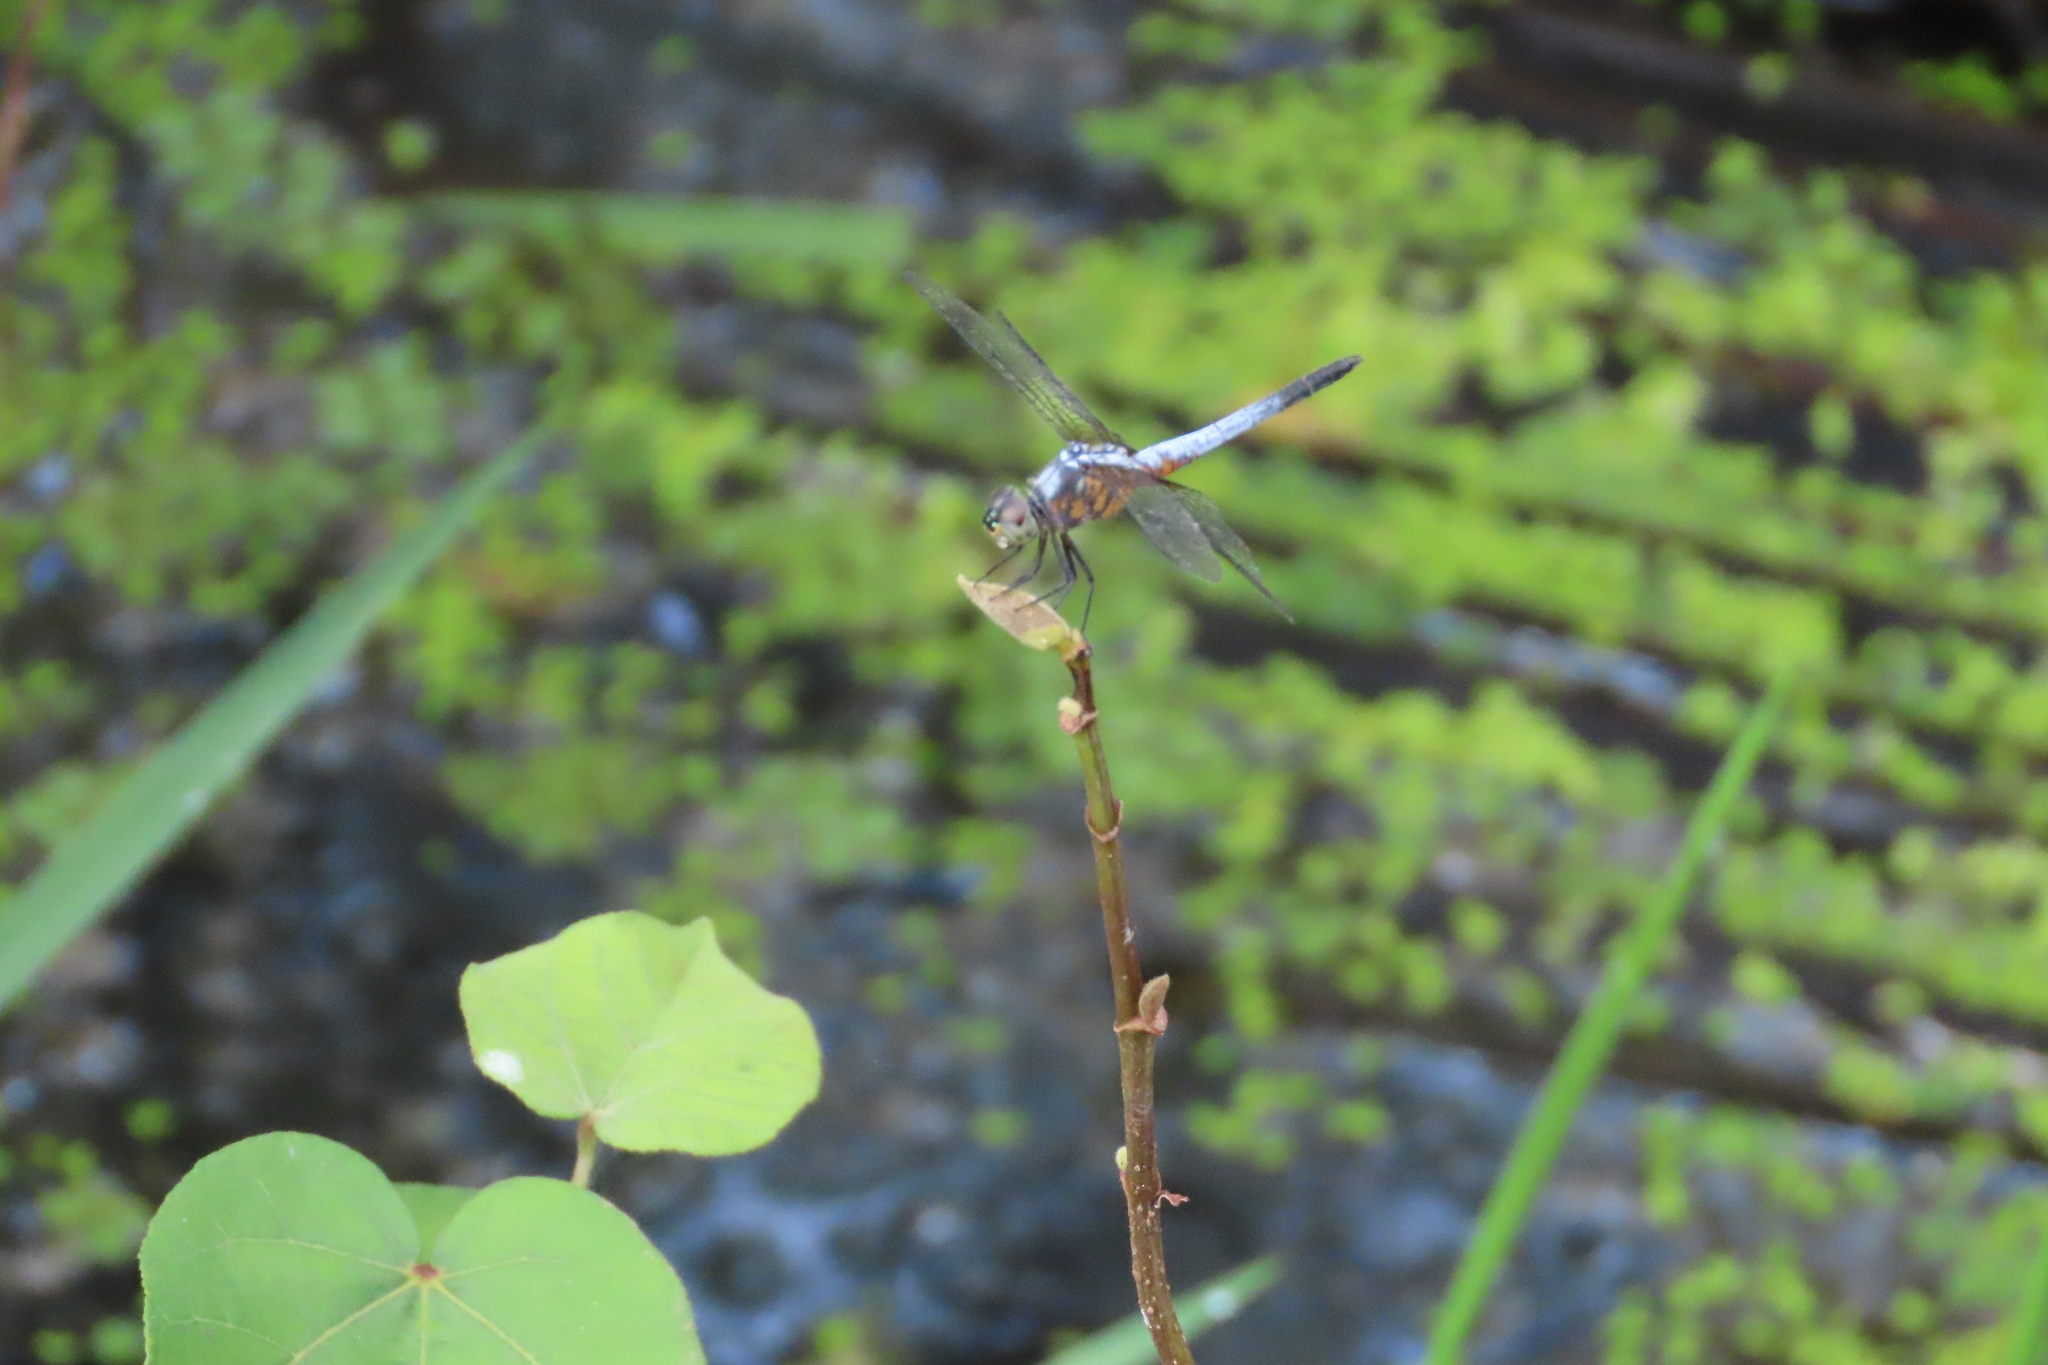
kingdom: Animalia
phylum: Arthropoda
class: Insecta
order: Odonata
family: Libellulidae
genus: Brachydiplax
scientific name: Brachydiplax chalybea
